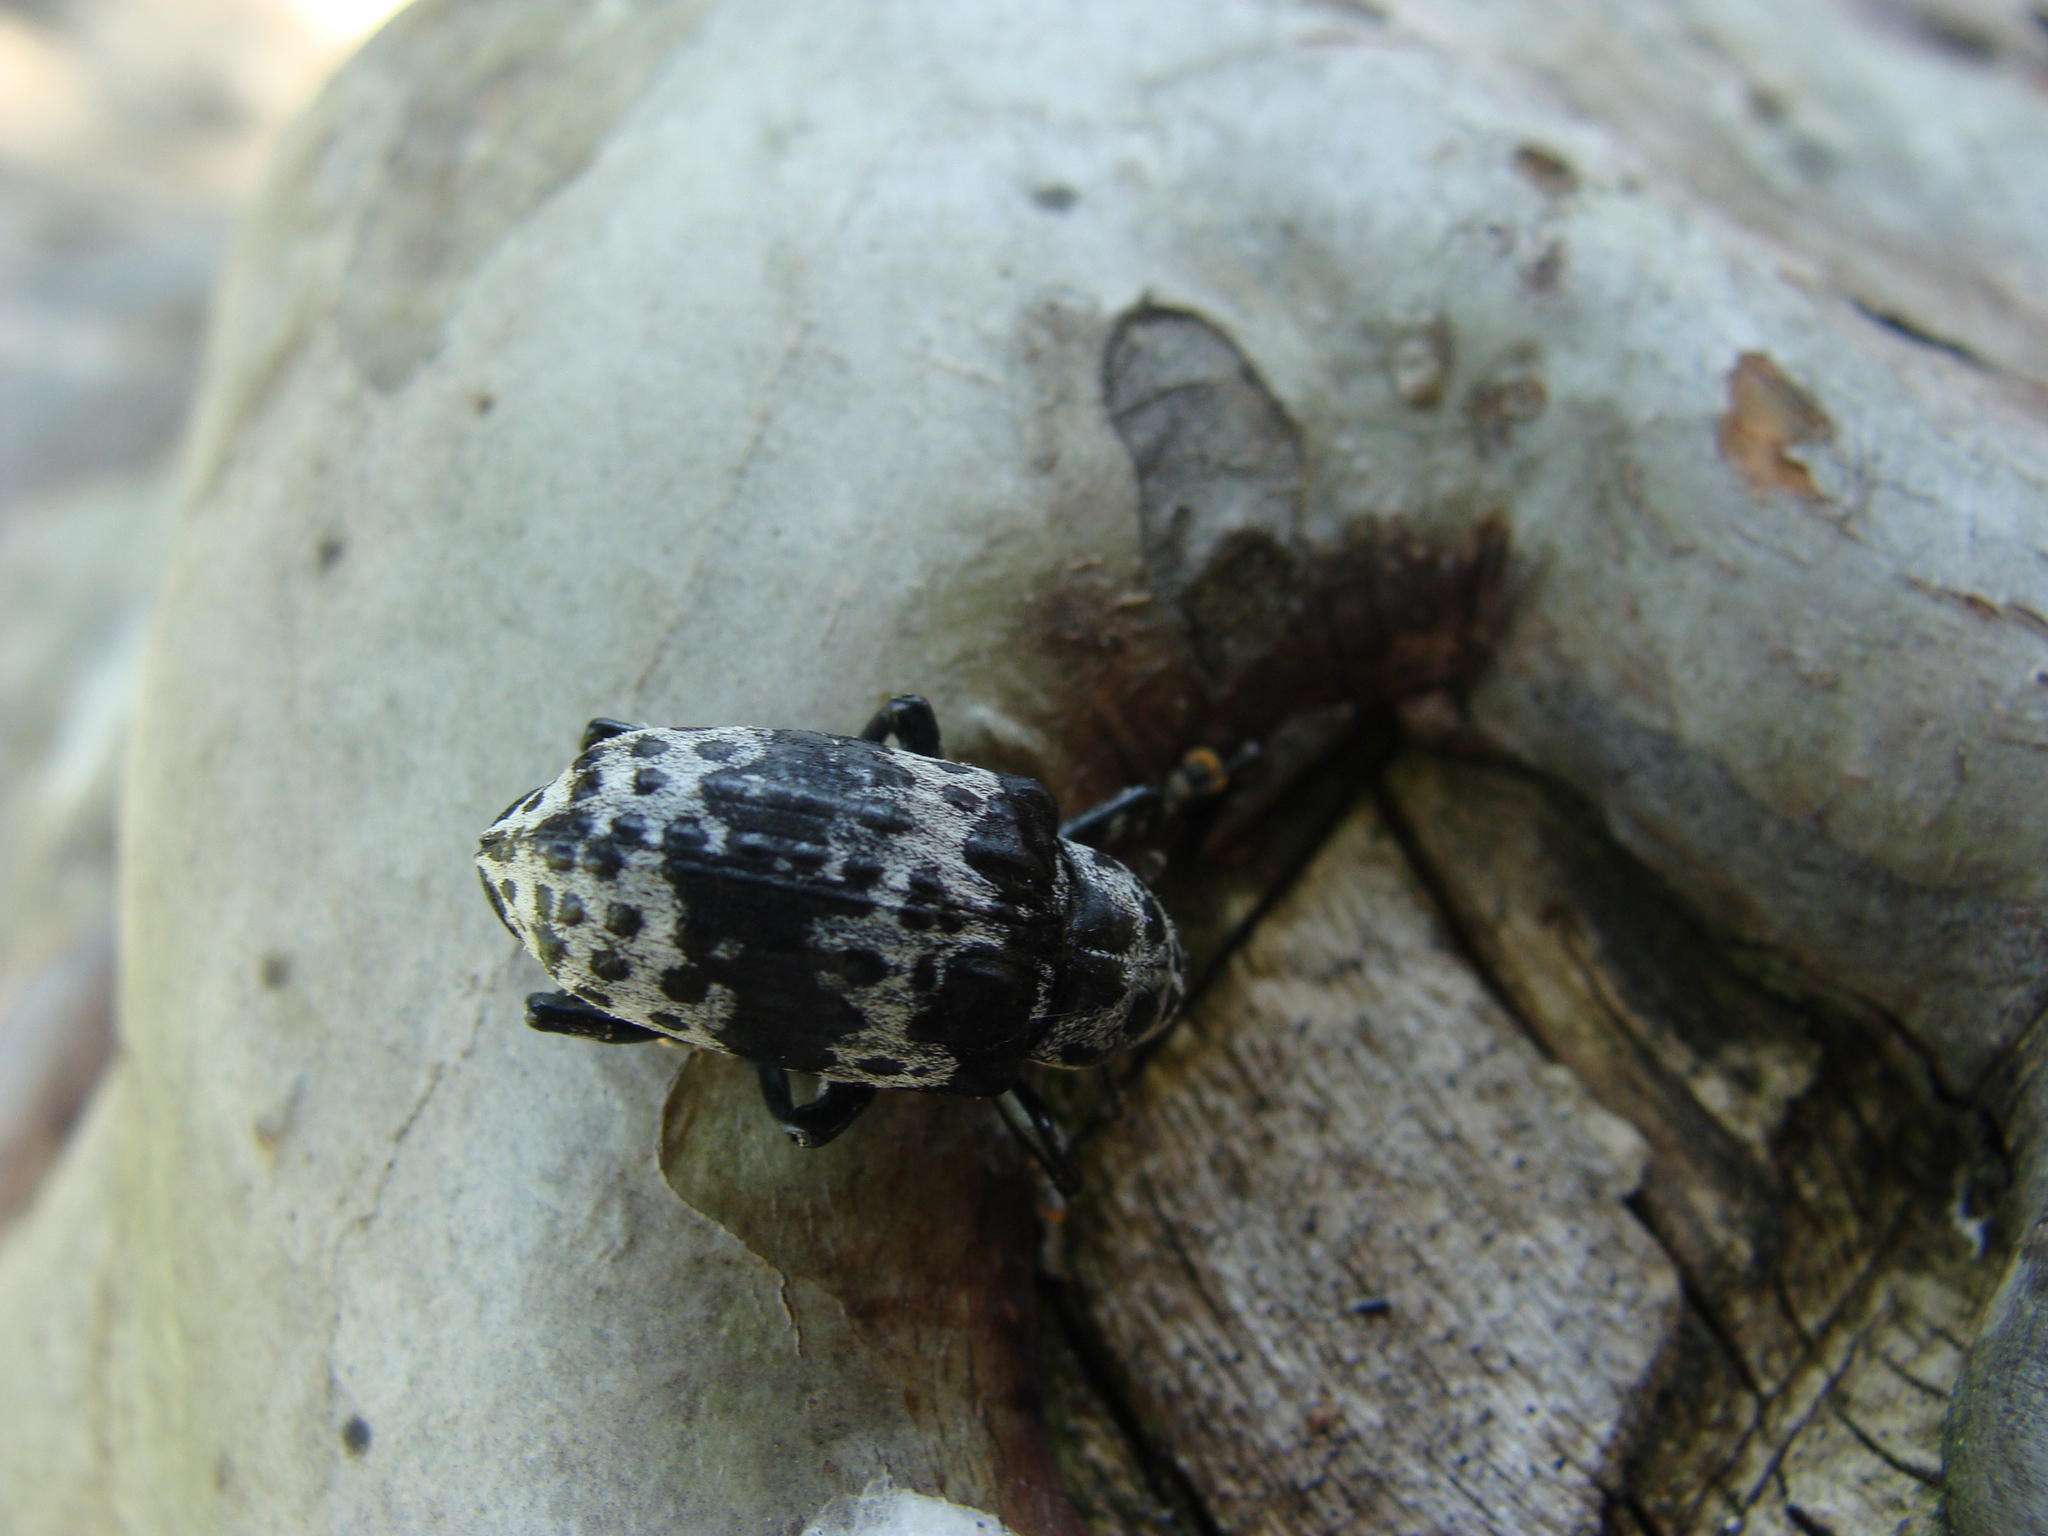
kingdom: Animalia
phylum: Arthropoda
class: Insecta
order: Coleoptera
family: Curculionidae
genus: Cratosomus
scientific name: Cratosomus punctulatus
